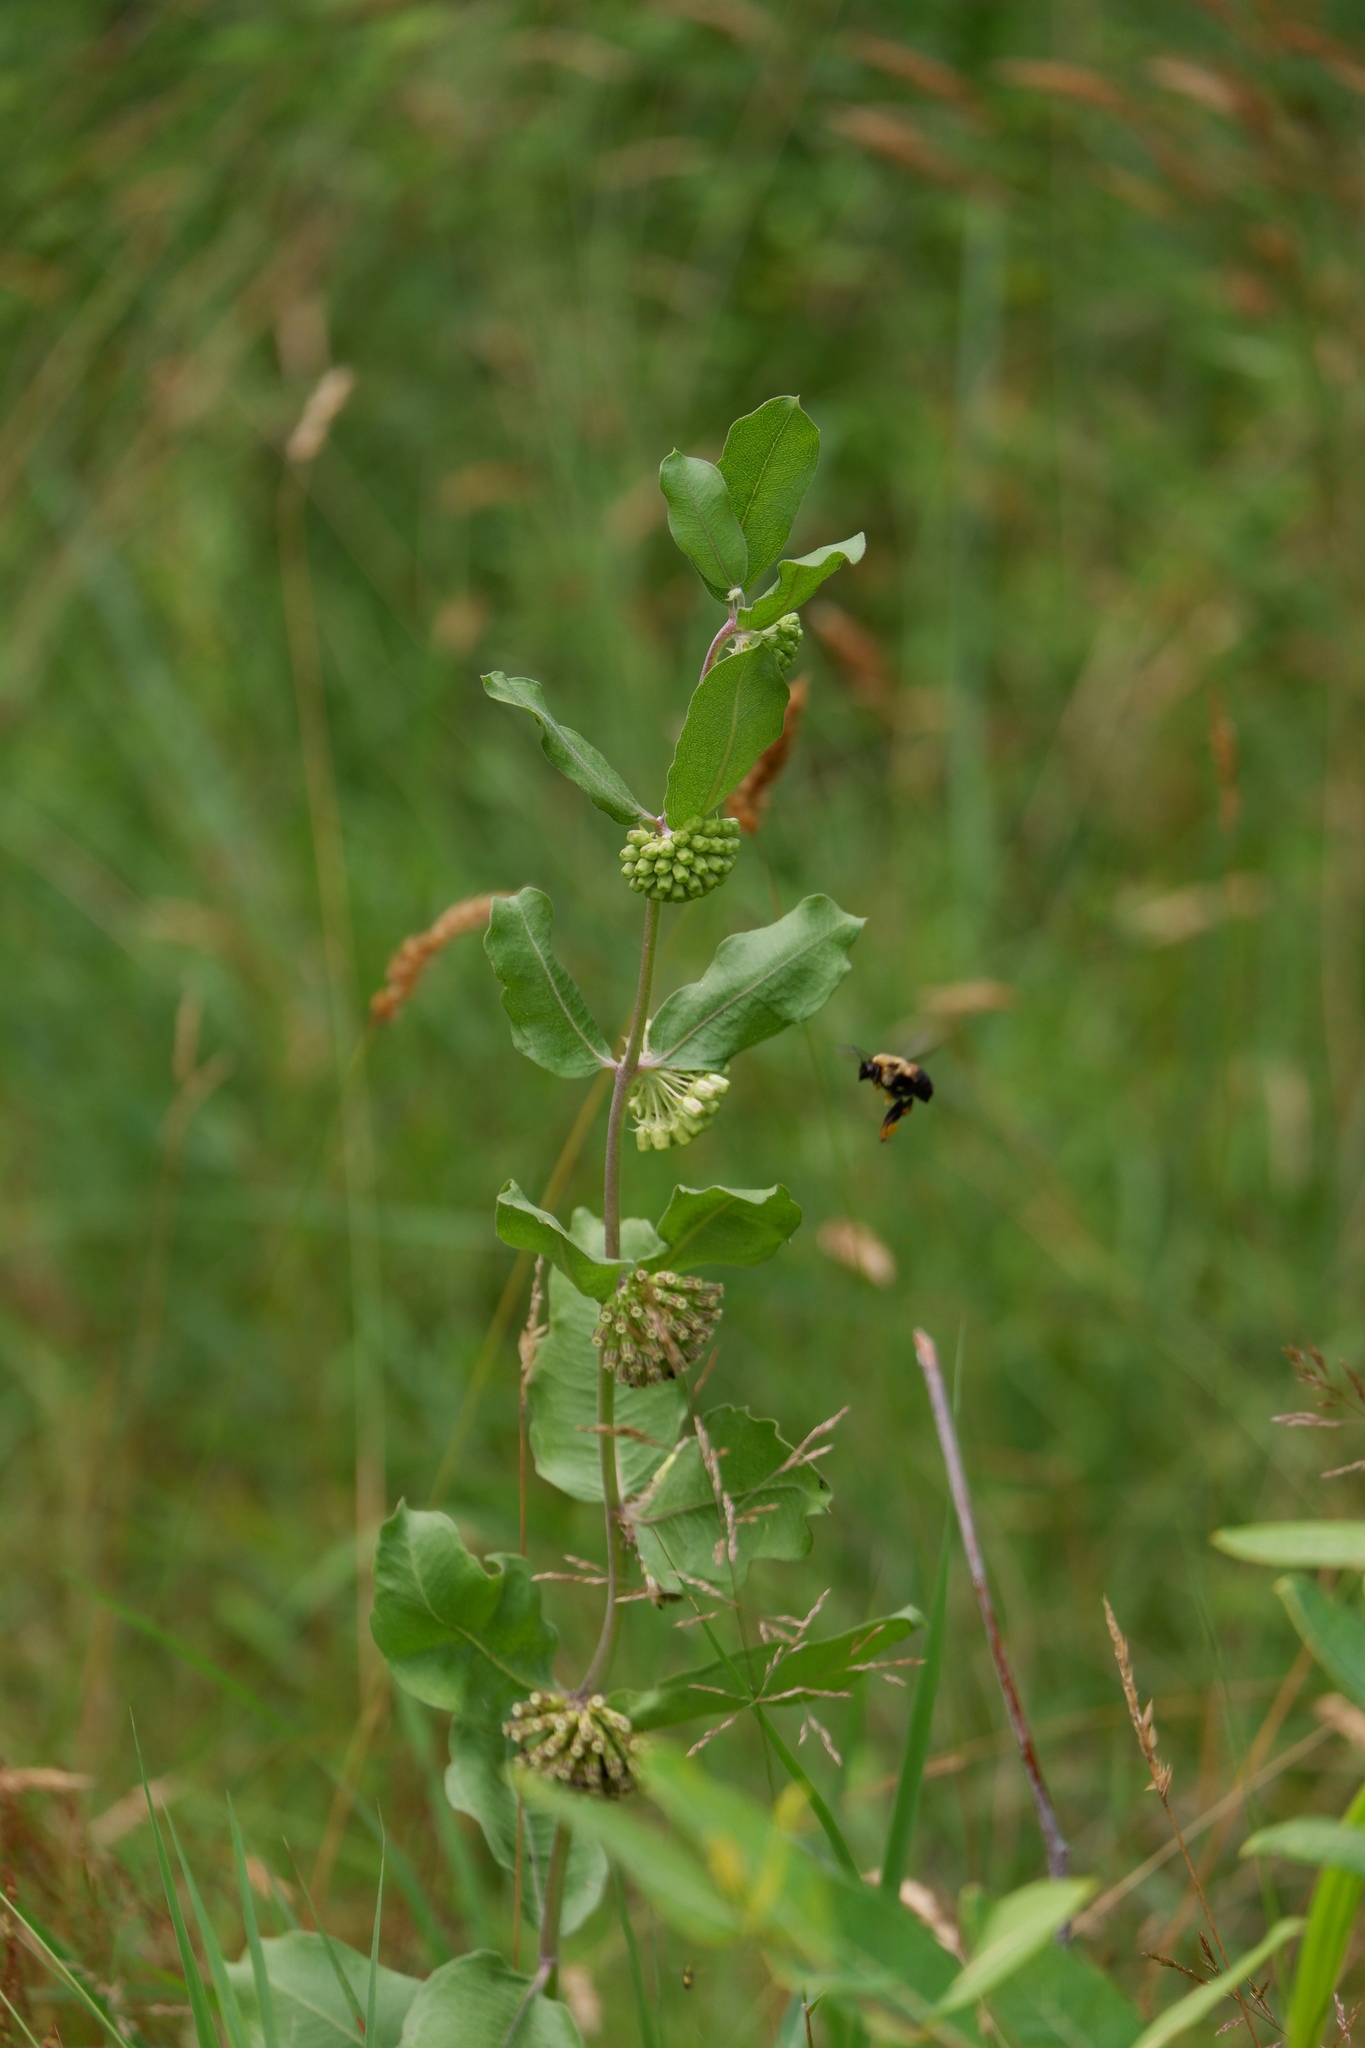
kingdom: Plantae
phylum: Tracheophyta
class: Magnoliopsida
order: Gentianales
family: Apocynaceae
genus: Asclepias
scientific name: Asclepias viridiflora
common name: Green comet milkweed
